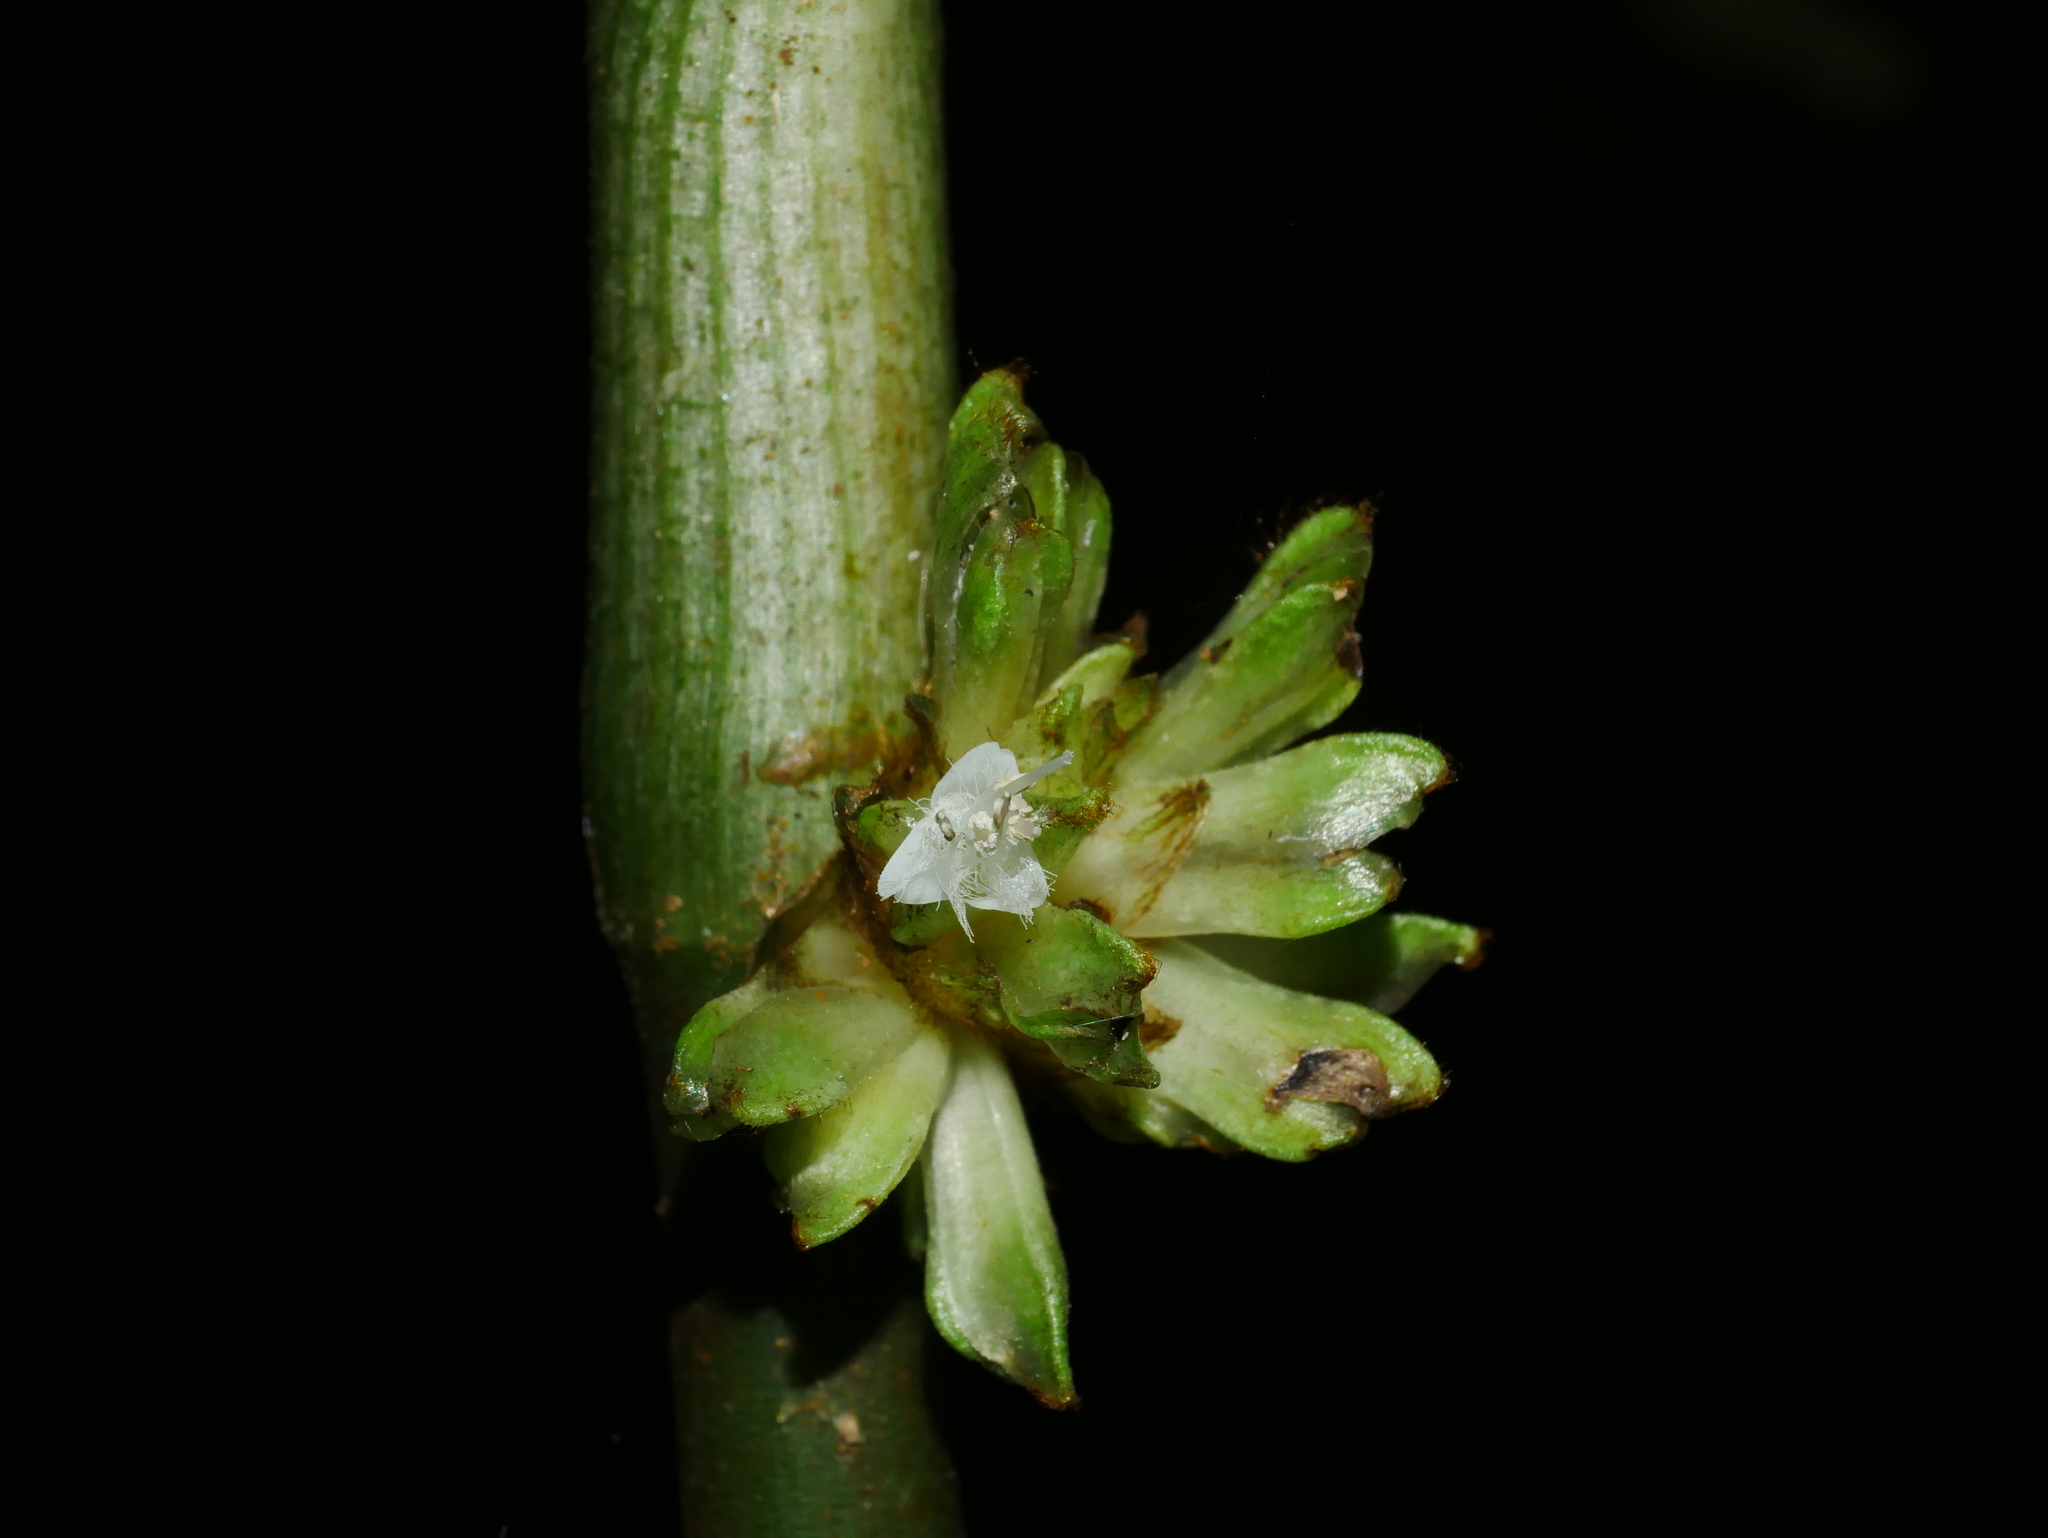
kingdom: Plantae
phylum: Tracheophyta
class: Liliopsida
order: Commelinales
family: Commelinaceae
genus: Amischotolype
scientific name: Amischotolype glabrata
